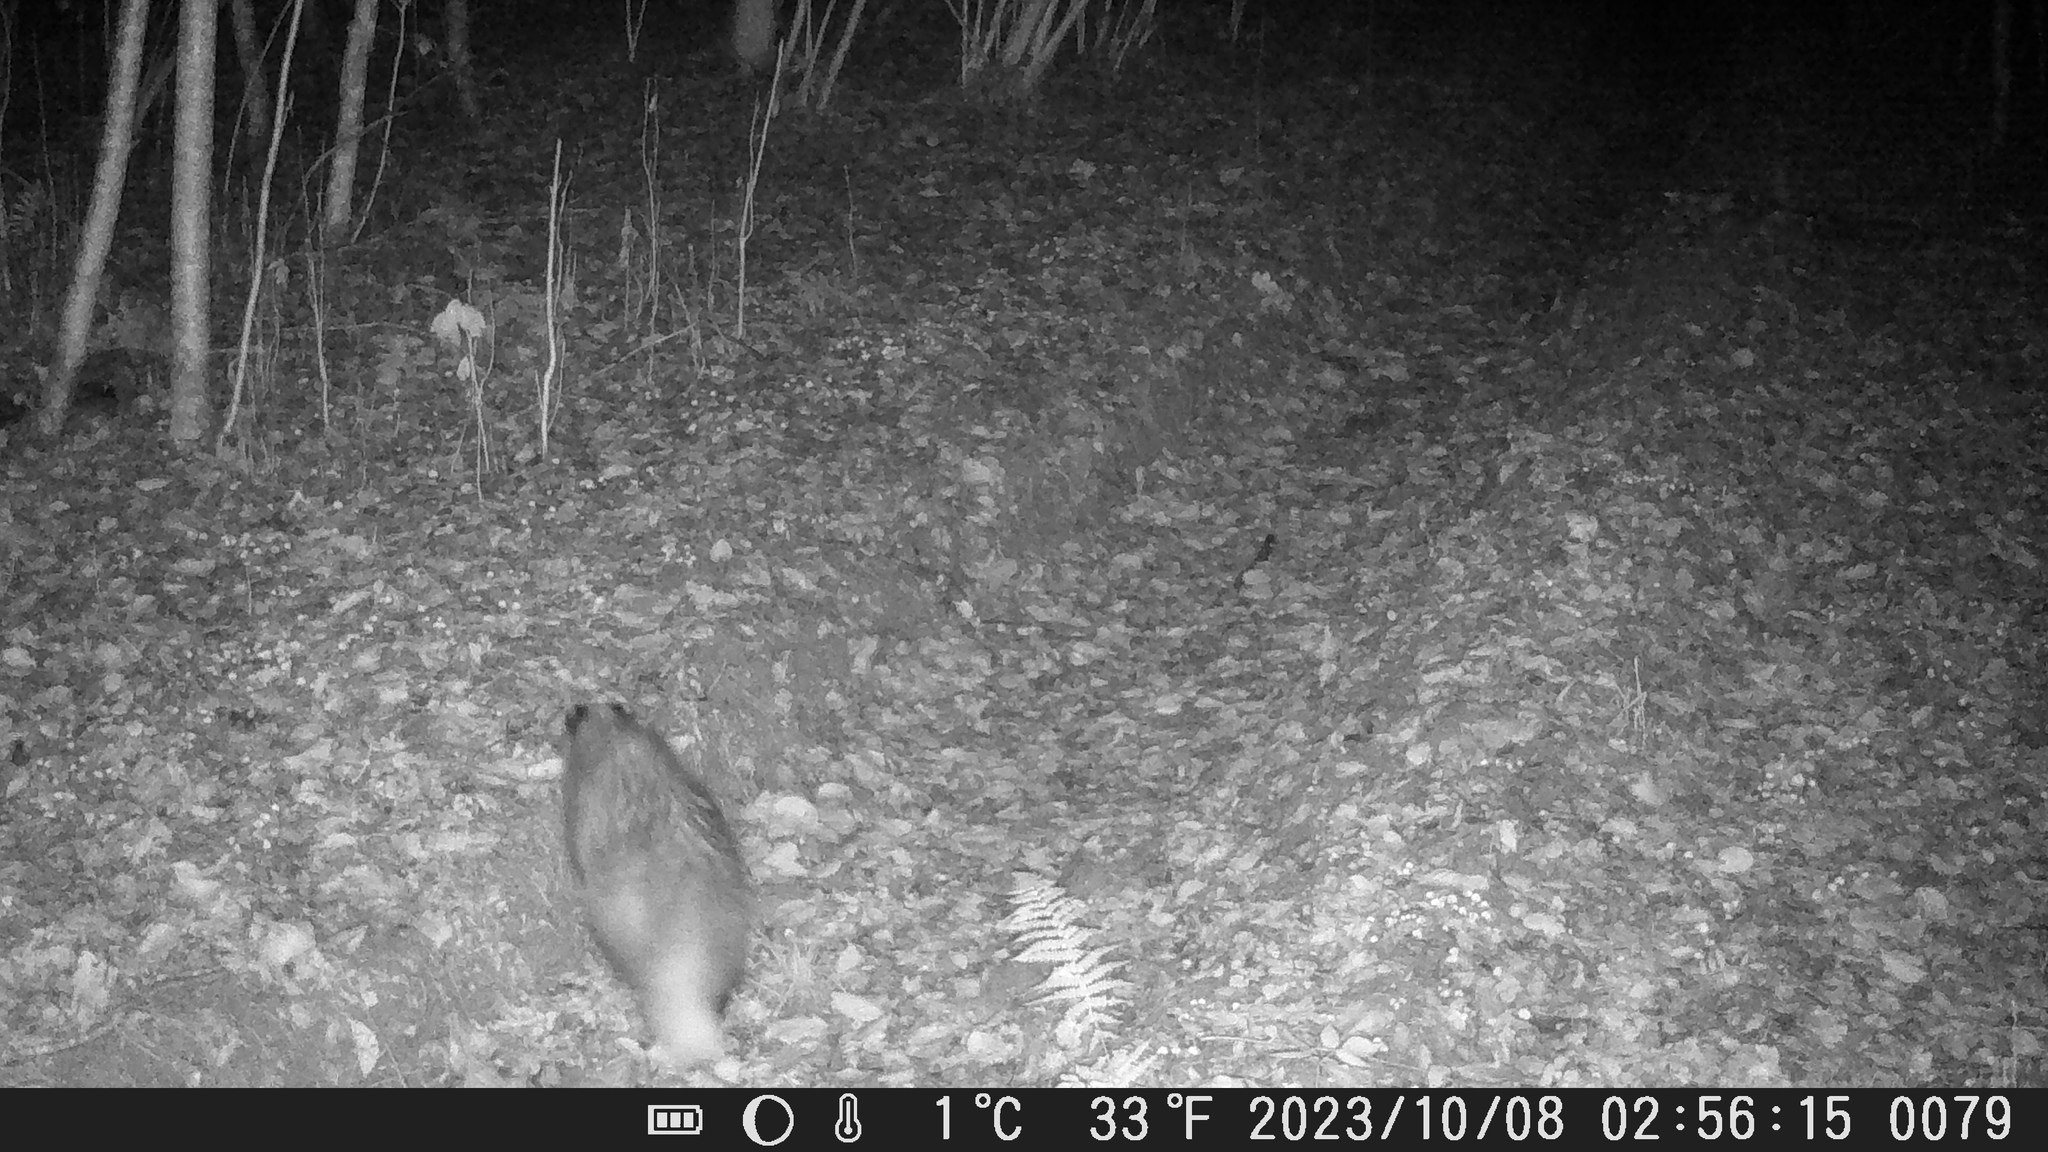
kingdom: Animalia
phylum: Chordata
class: Mammalia
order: Carnivora
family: Canidae
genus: Nyctereutes
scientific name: Nyctereutes procyonoides
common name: Raccoon dog
